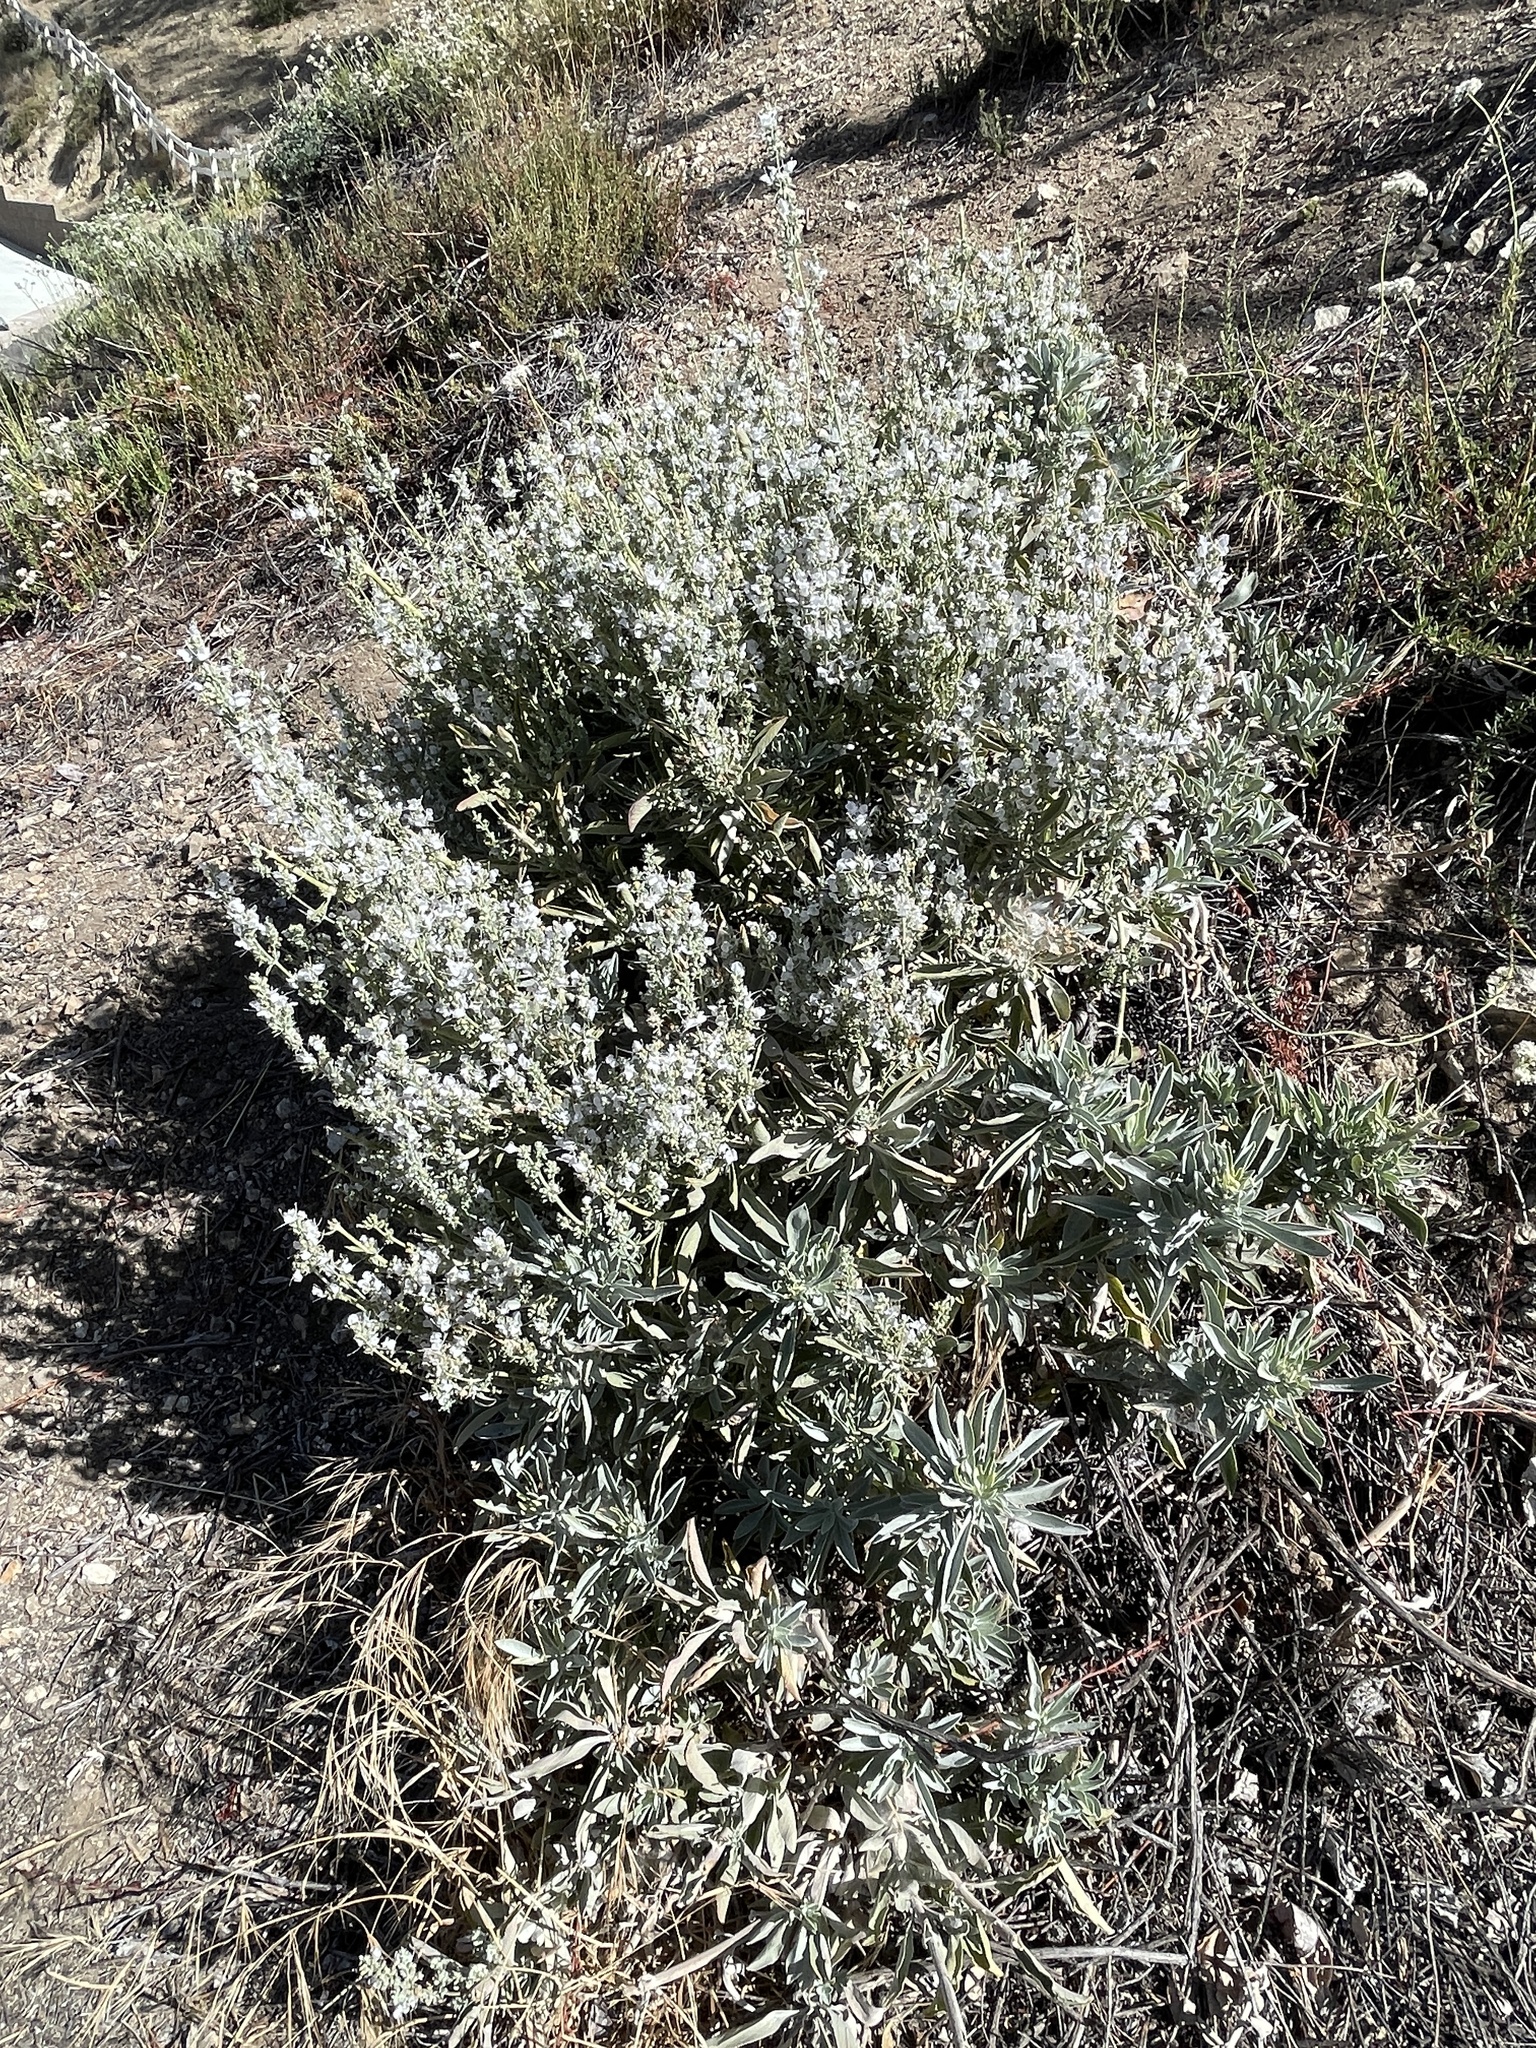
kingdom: Plantae
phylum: Tracheophyta
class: Magnoliopsida
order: Lamiales
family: Lamiaceae
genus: Salvia
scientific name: Salvia apiana
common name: White sage
